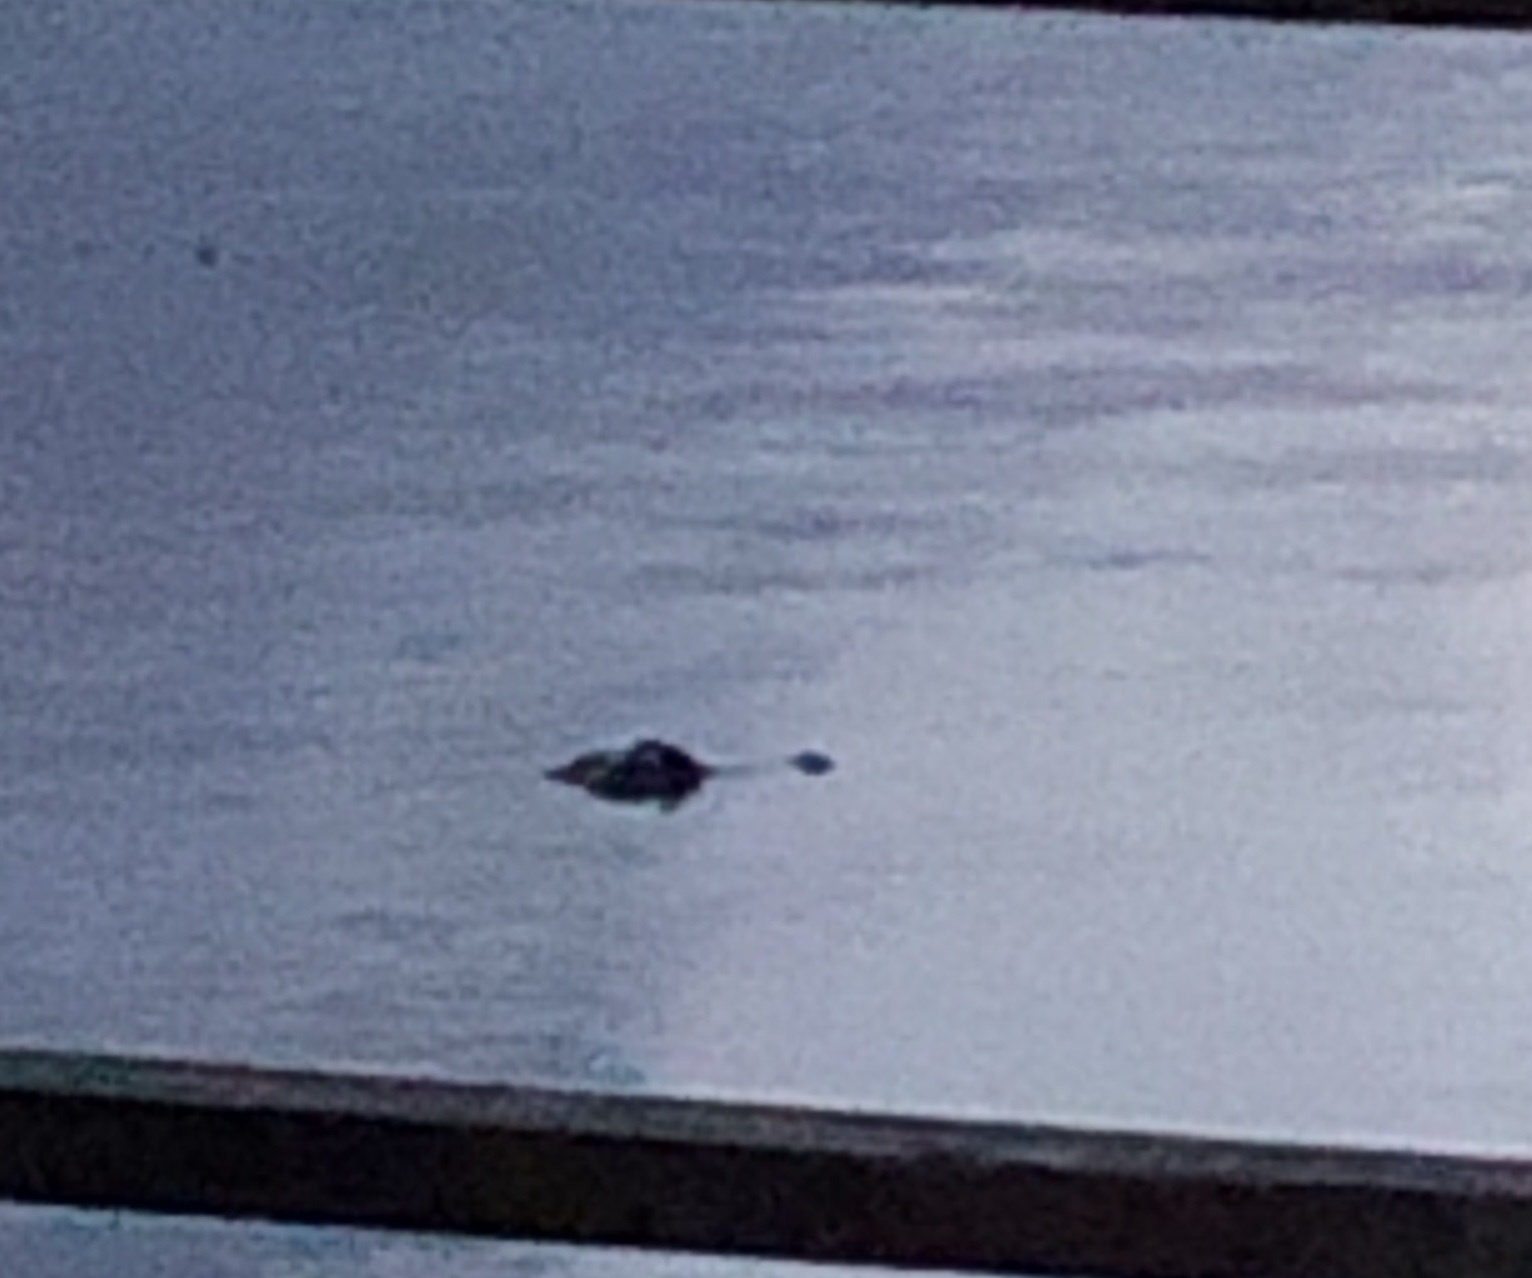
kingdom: Animalia
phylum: Chordata
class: Crocodylia
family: Alligatoridae
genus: Alligator
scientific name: Alligator mississippiensis
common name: American alligator
